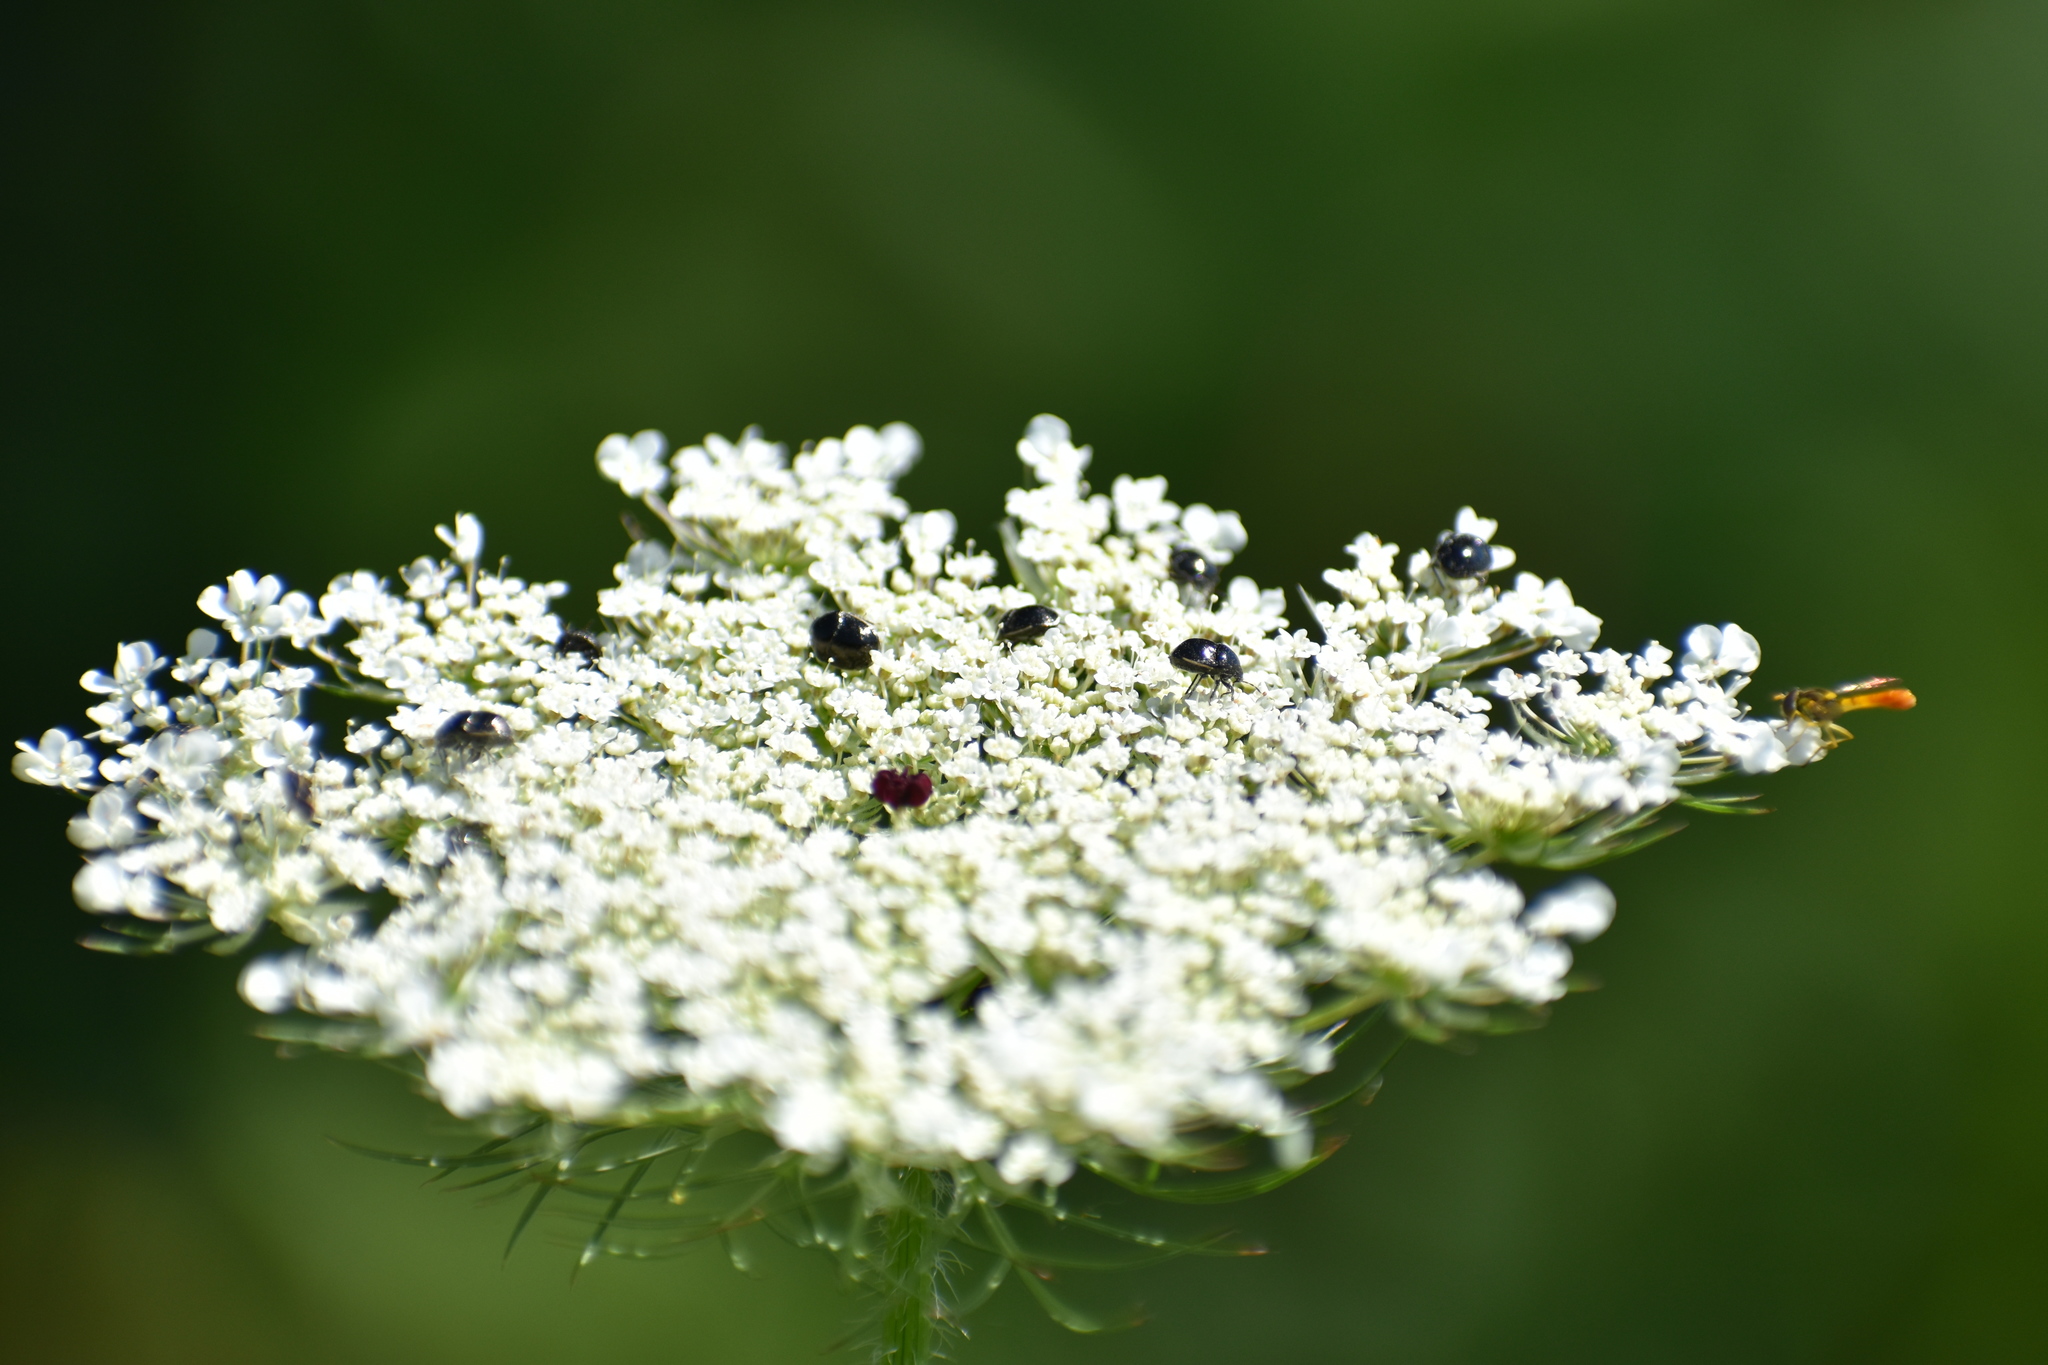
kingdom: Animalia
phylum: Arthropoda
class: Insecta
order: Diptera
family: Syrphidae
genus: Sphaerophoria
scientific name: Sphaerophoria contigua
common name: Tufted globetail
